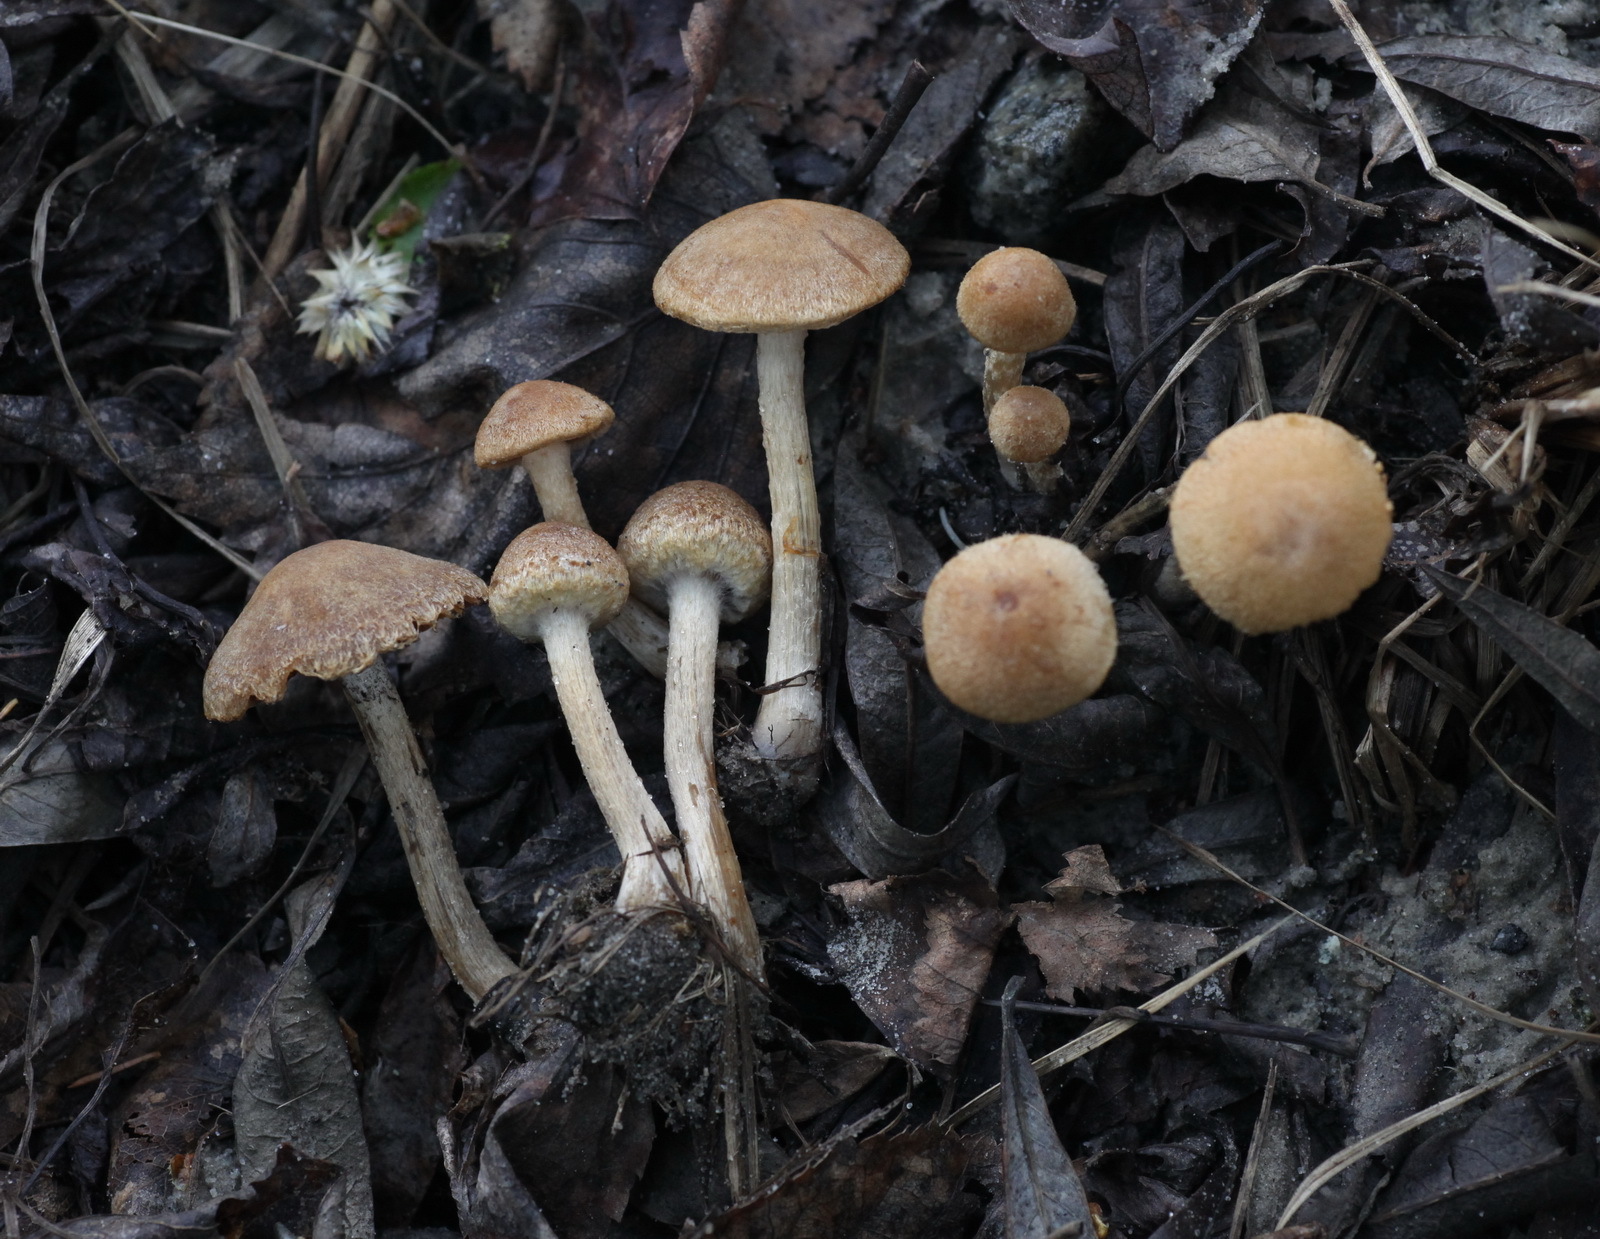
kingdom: Fungi
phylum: Basidiomycota
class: Agaricomycetes
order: Agaricales
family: Psathyrellaceae
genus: Lacrymaria
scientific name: Lacrymaria lacrymabunda
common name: Weeping widow
